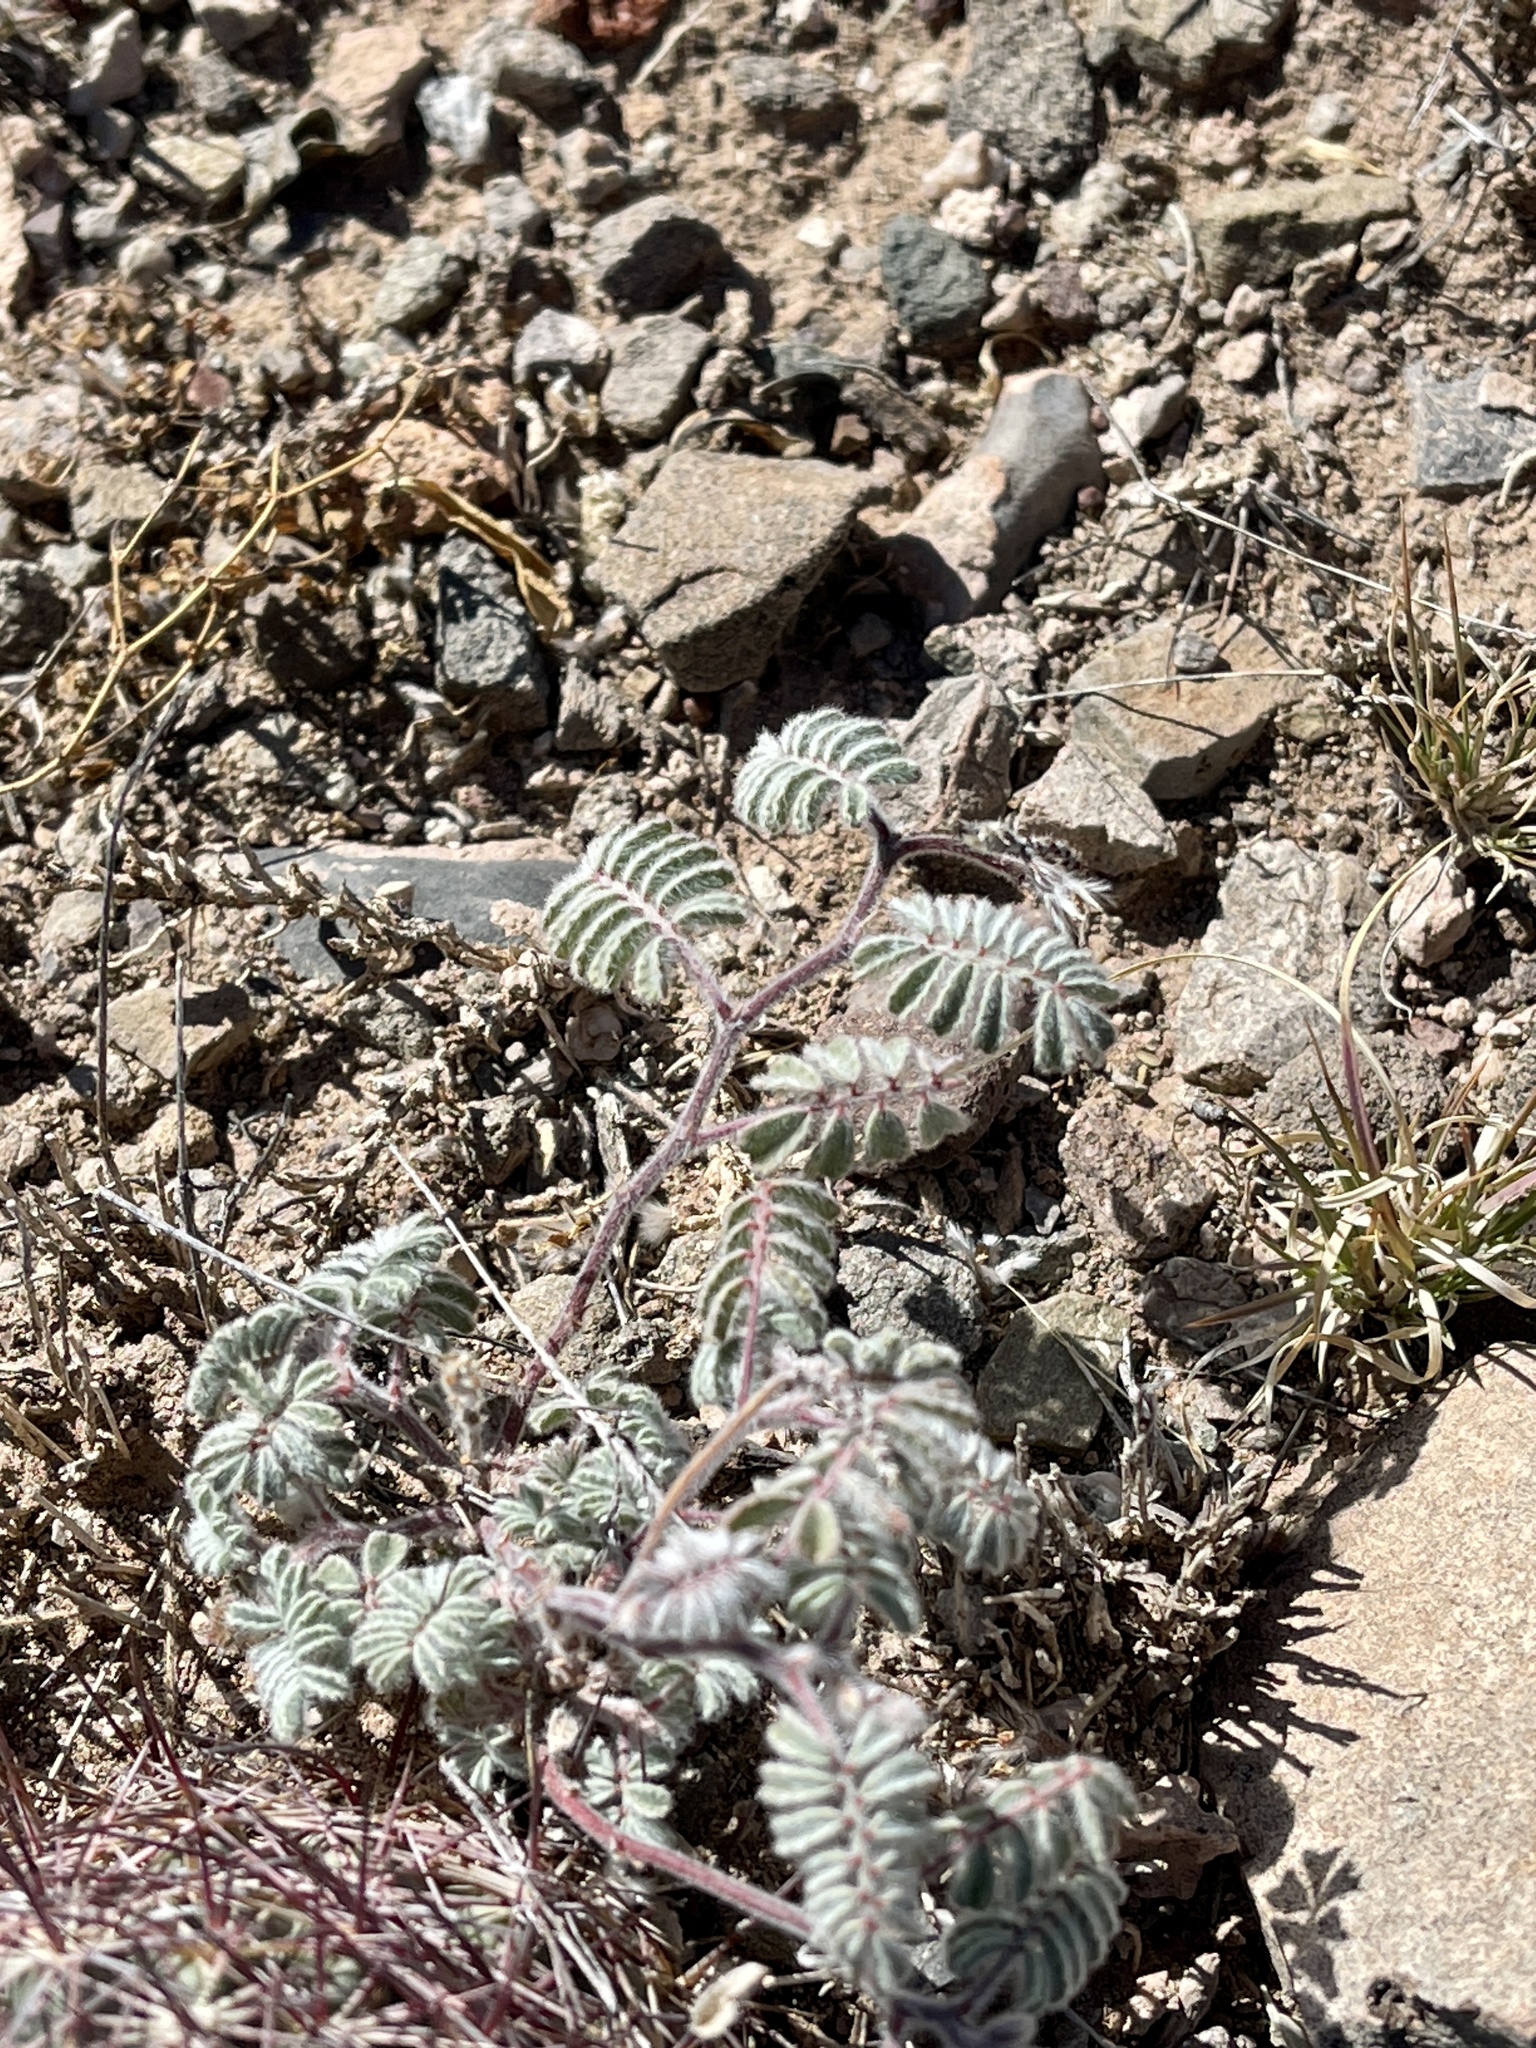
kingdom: Plantae
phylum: Tracheophyta
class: Magnoliopsida
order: Fabales
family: Fabaceae
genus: Hoffmannseggia
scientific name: Hoffmannseggia glauca
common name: Pignut
